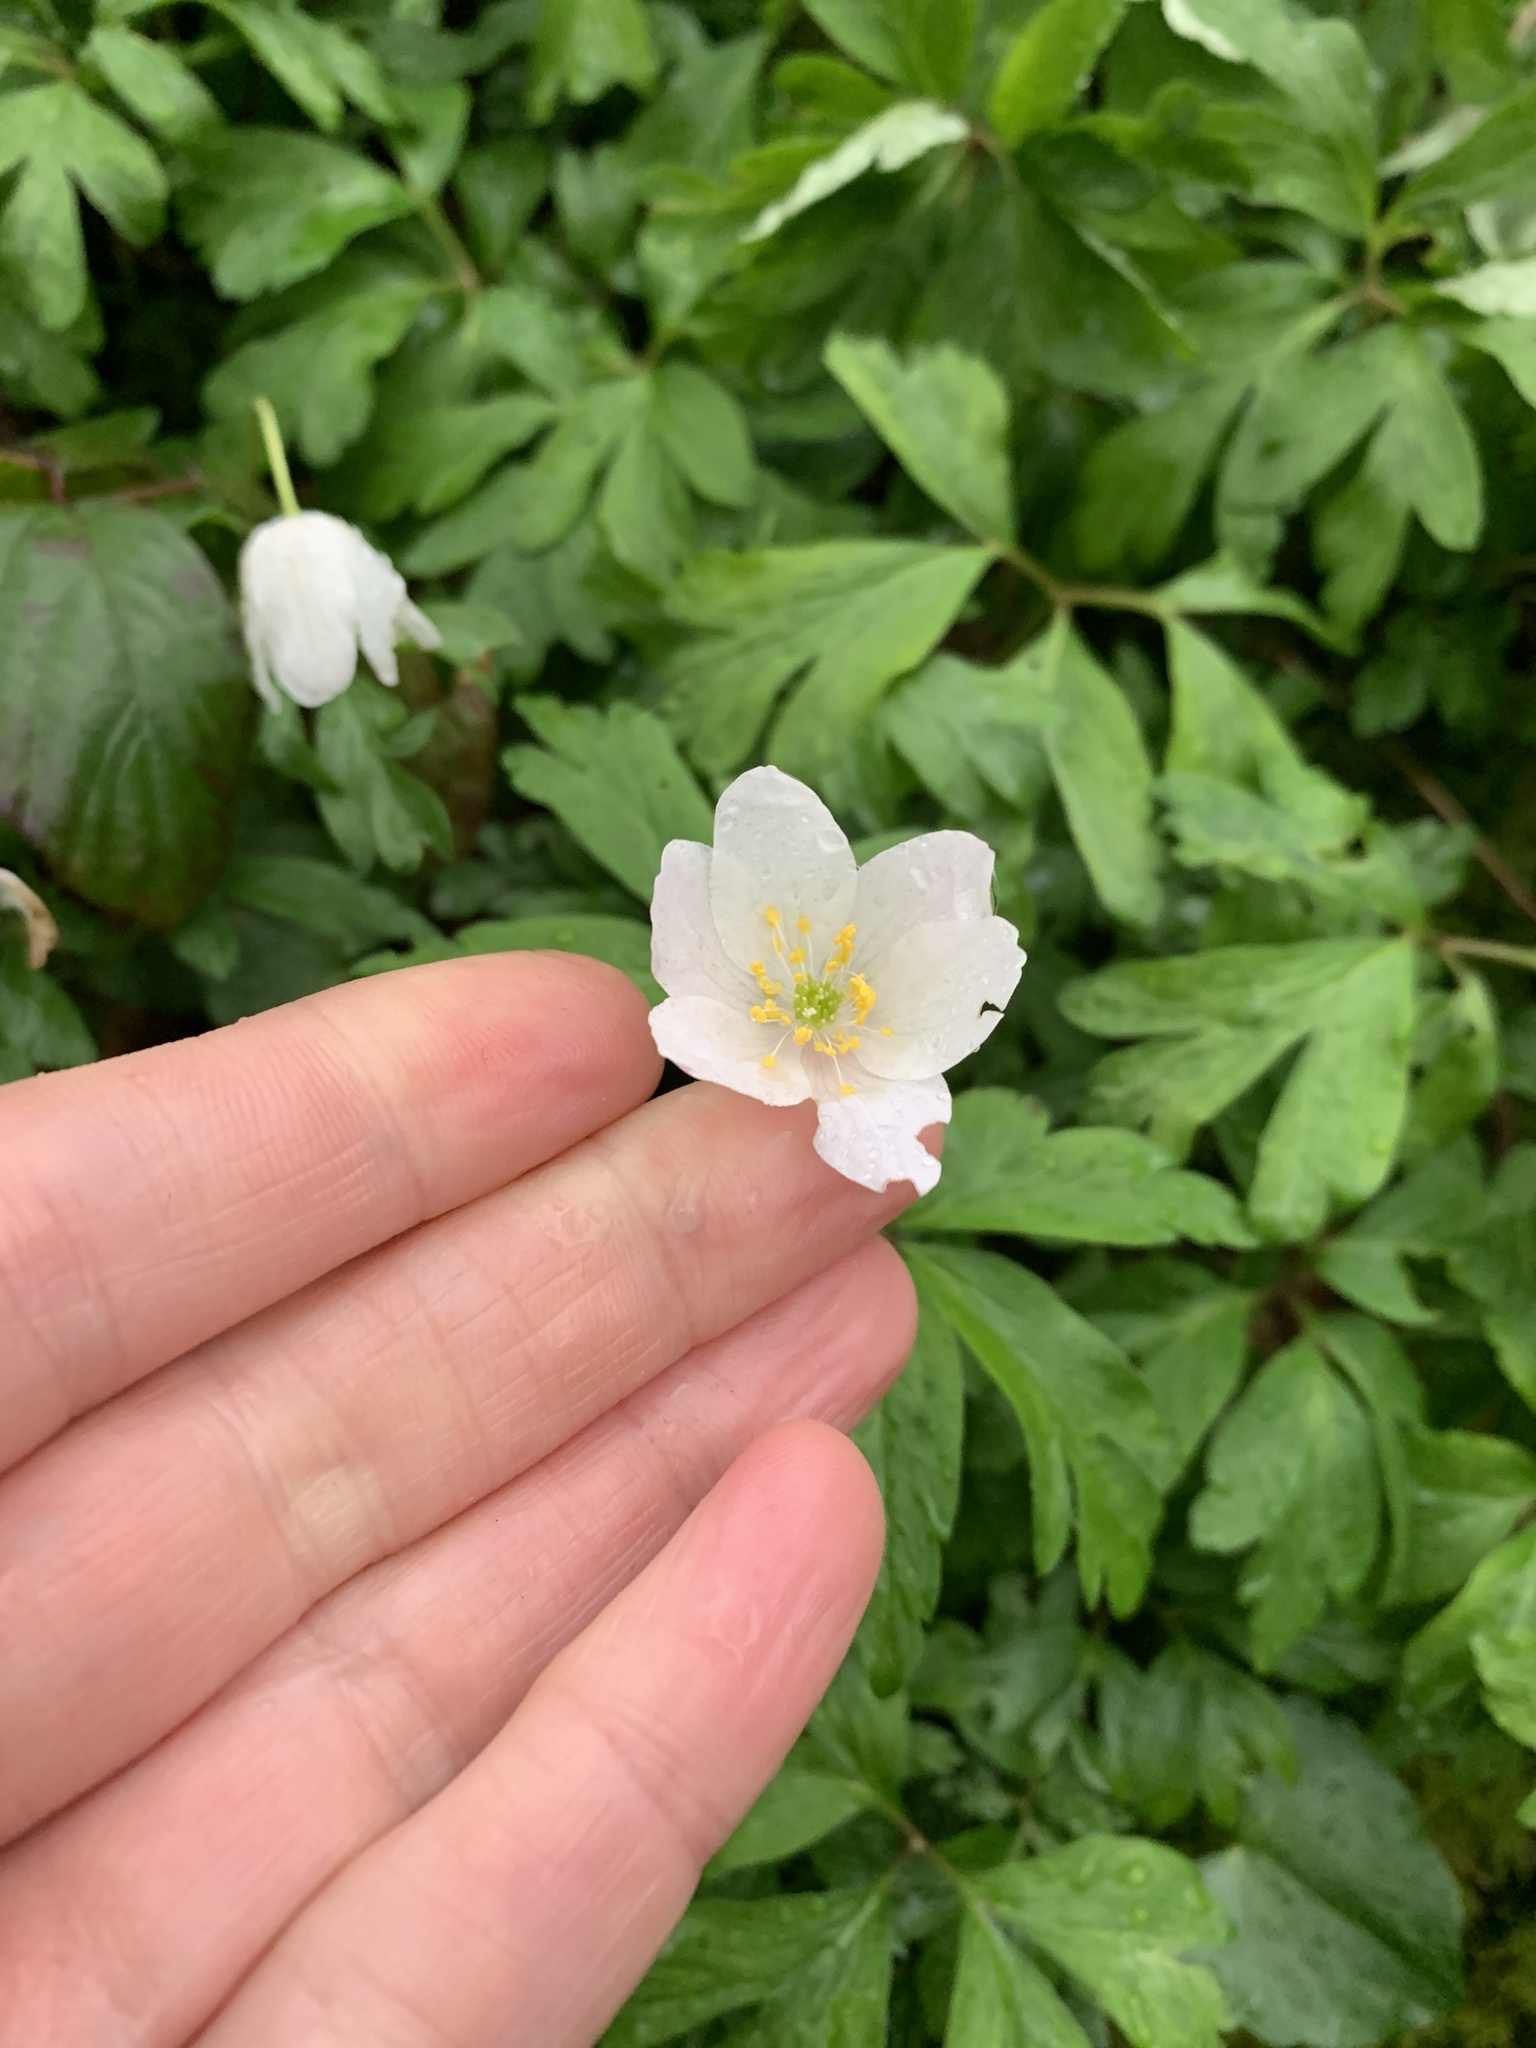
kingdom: Plantae
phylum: Tracheophyta
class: Magnoliopsida
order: Ranunculales
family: Ranunculaceae
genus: Anemone
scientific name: Anemone nemorosa
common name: Wood anemone
